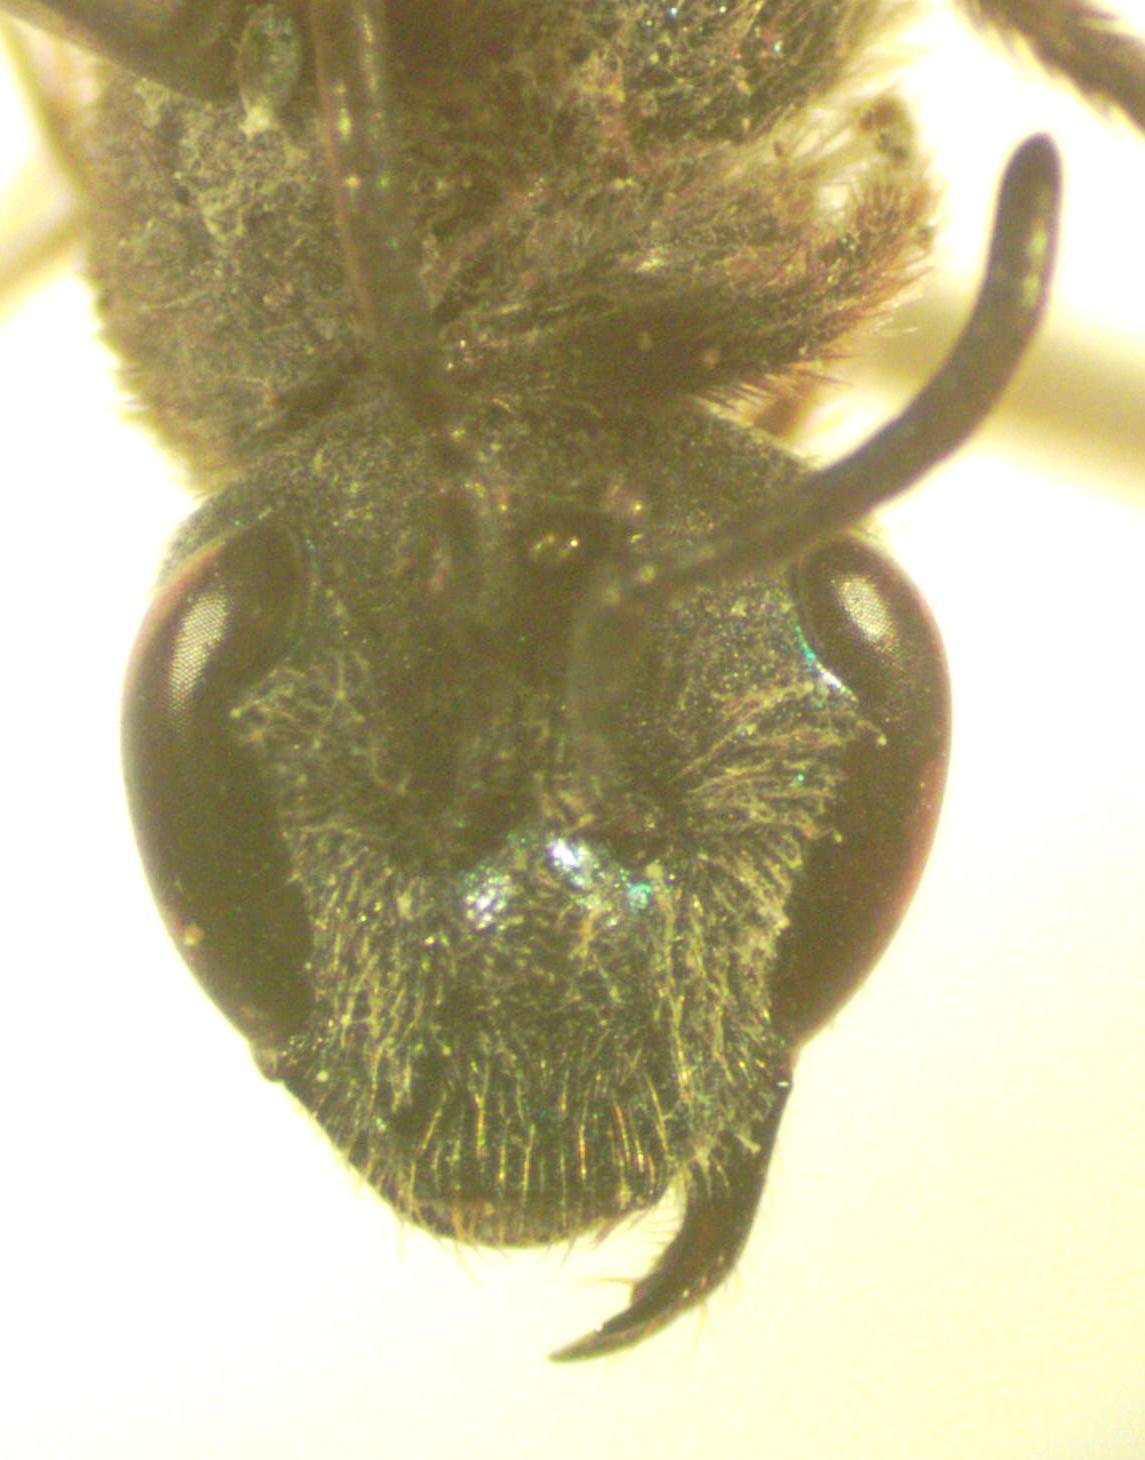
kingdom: Animalia
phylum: Arthropoda
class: Insecta
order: Hymenoptera
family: Halictidae
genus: Augochlora
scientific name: Augochlora nigrocyanea
